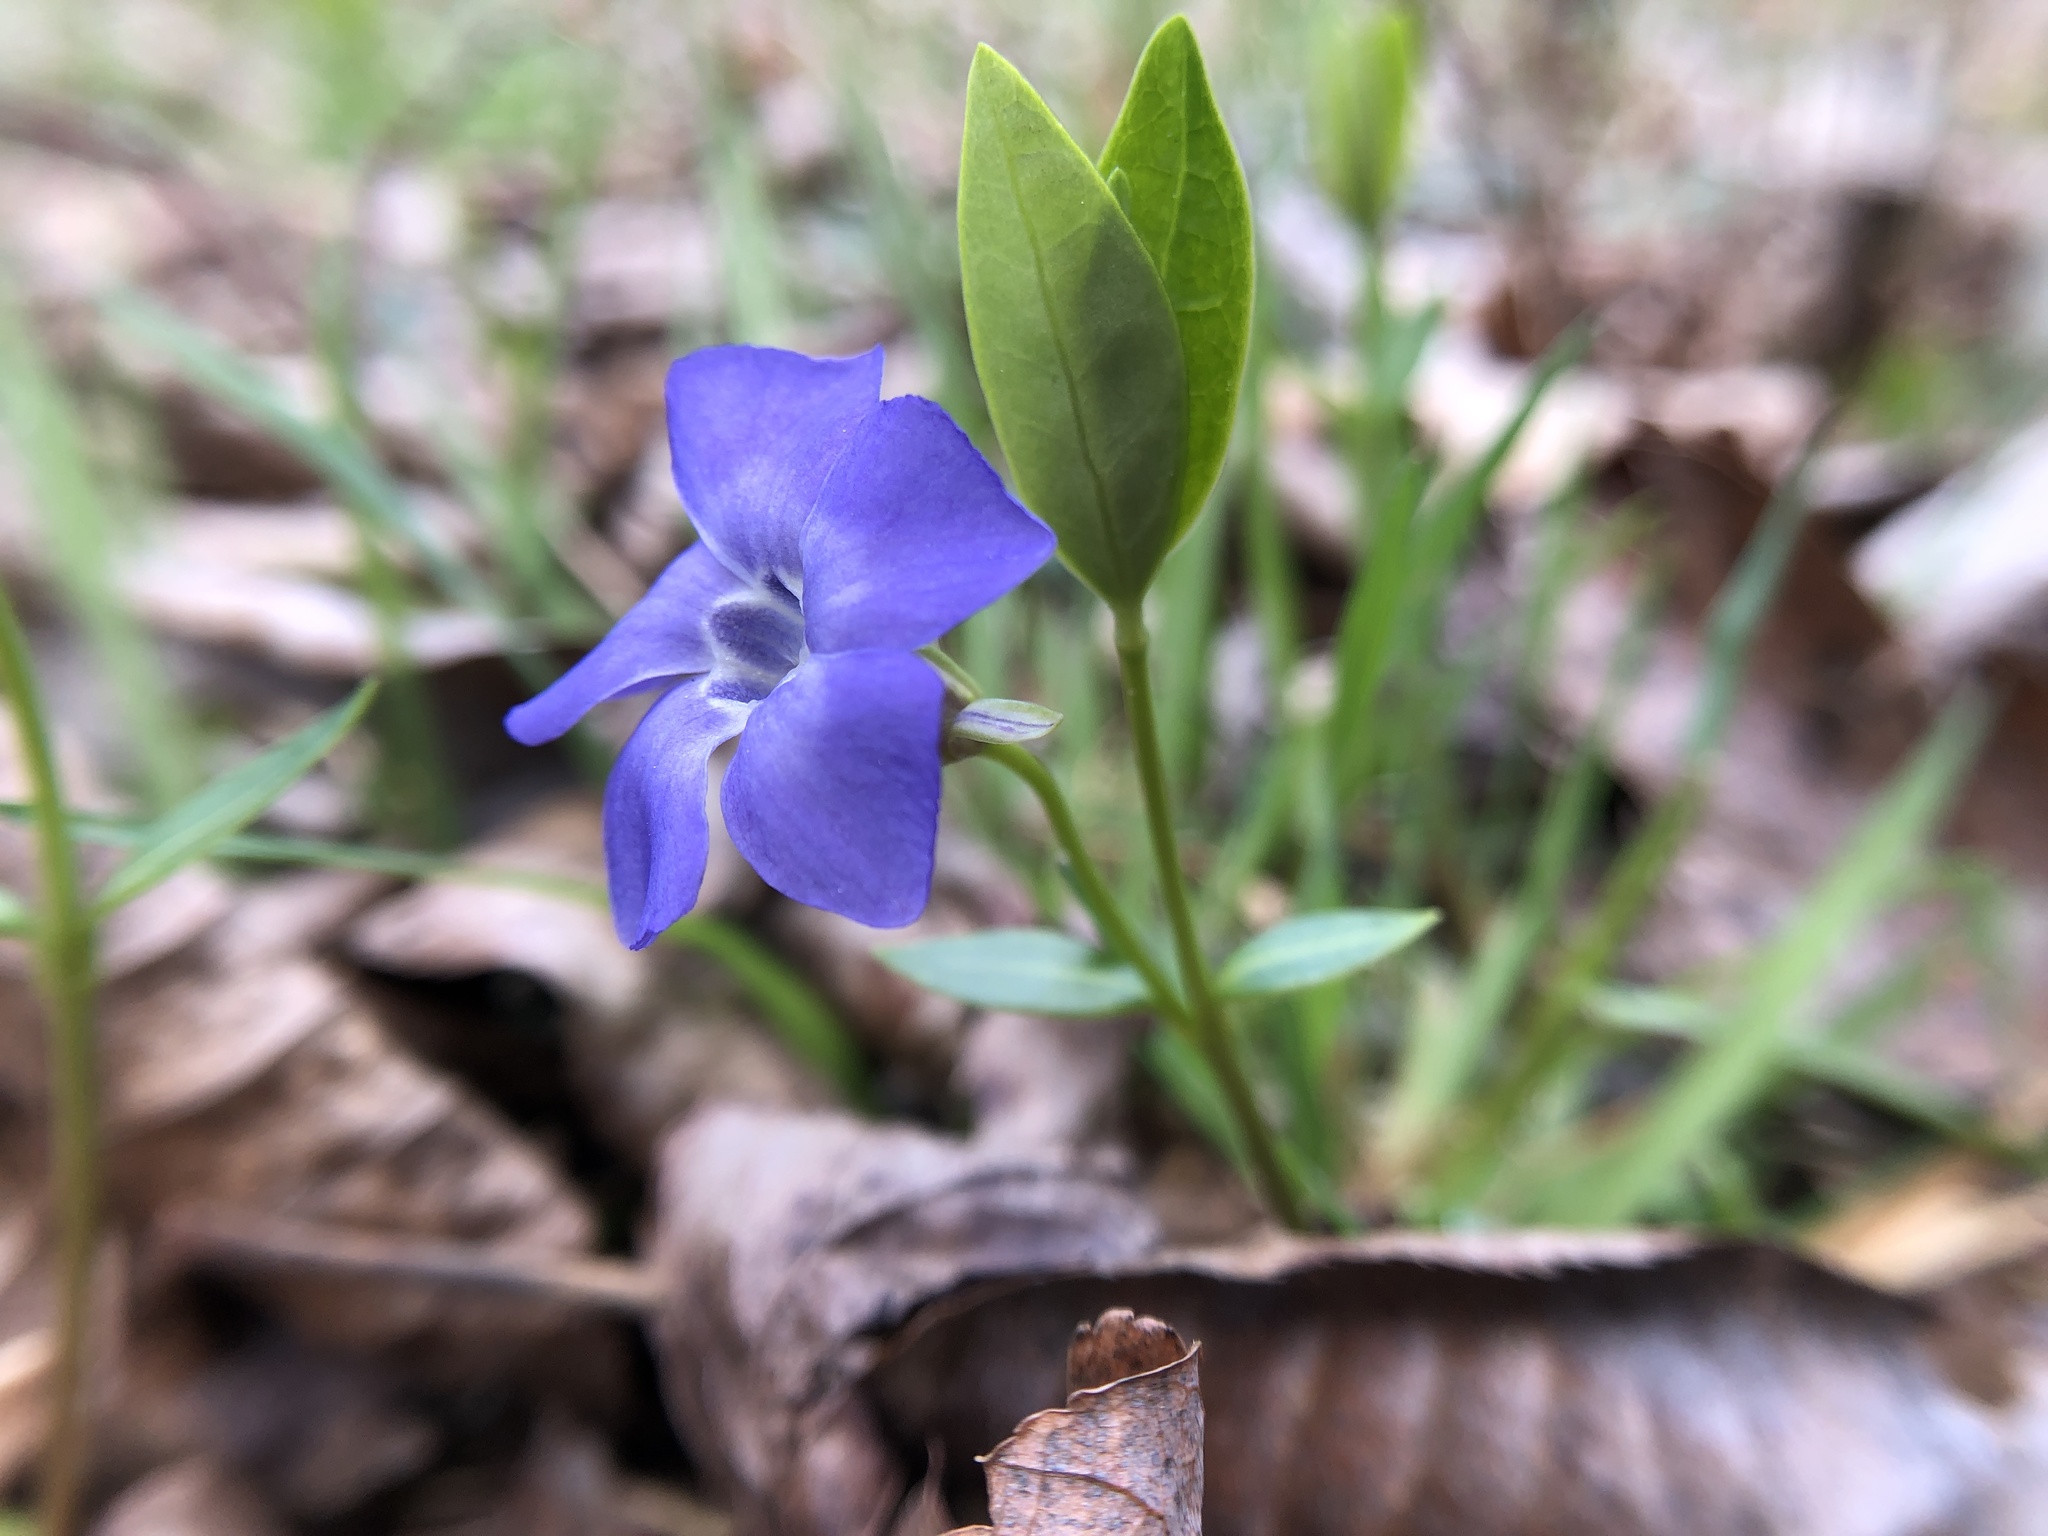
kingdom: Plantae
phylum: Tracheophyta
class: Magnoliopsida
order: Gentianales
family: Apocynaceae
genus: Vinca
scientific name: Vinca minor
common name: Lesser periwinkle
